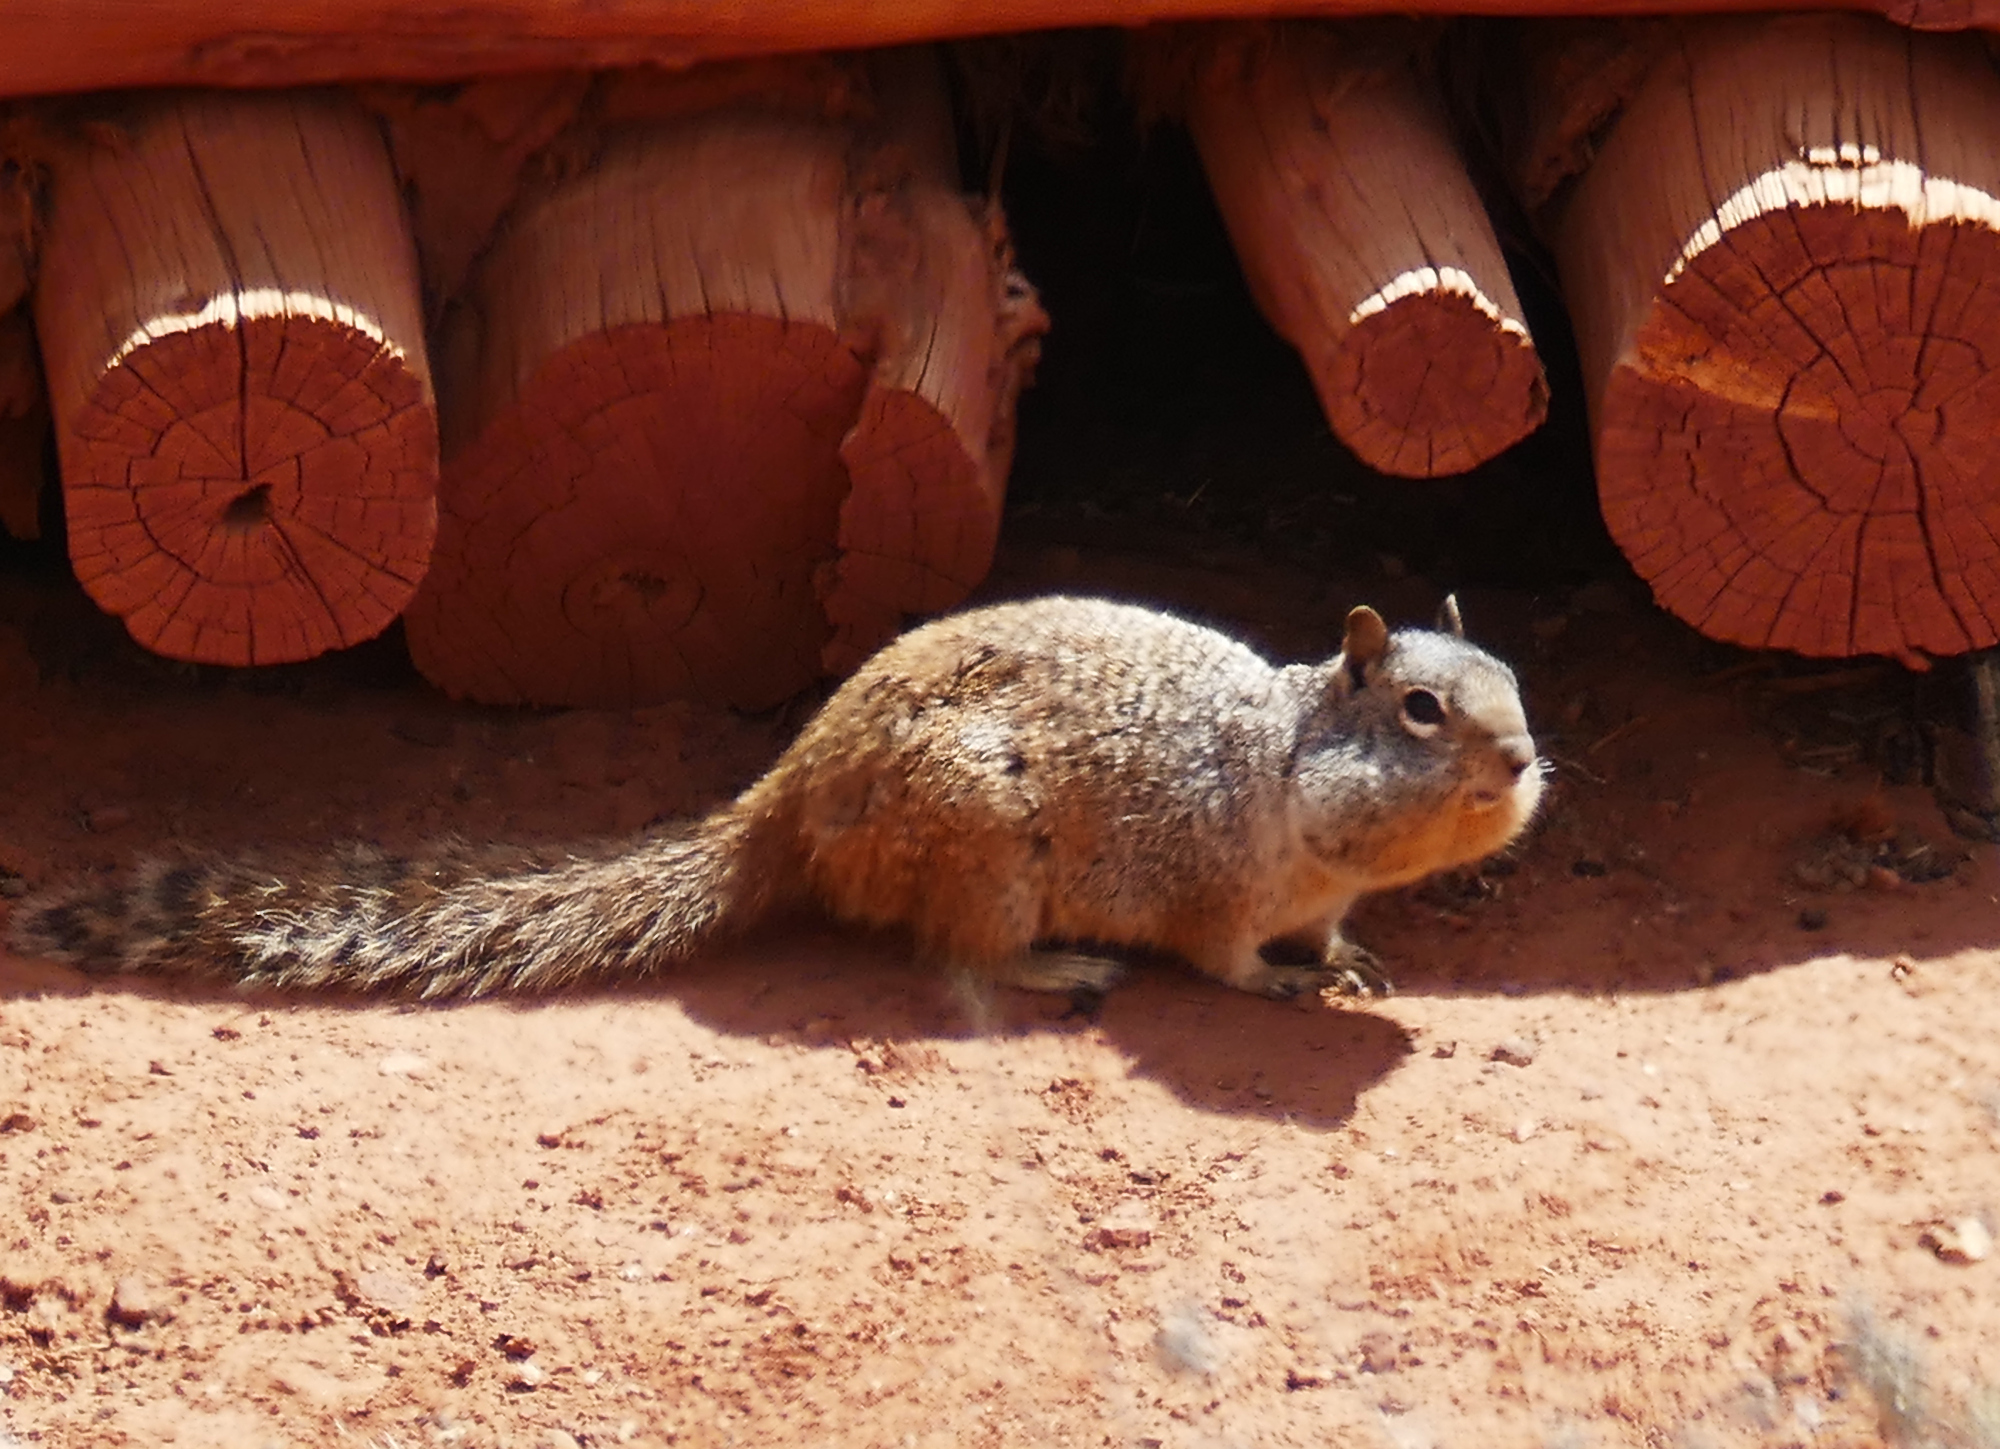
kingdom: Animalia
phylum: Chordata
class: Mammalia
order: Rodentia
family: Sciuridae
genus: Otospermophilus
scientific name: Otospermophilus variegatus
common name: Rock squirrel
